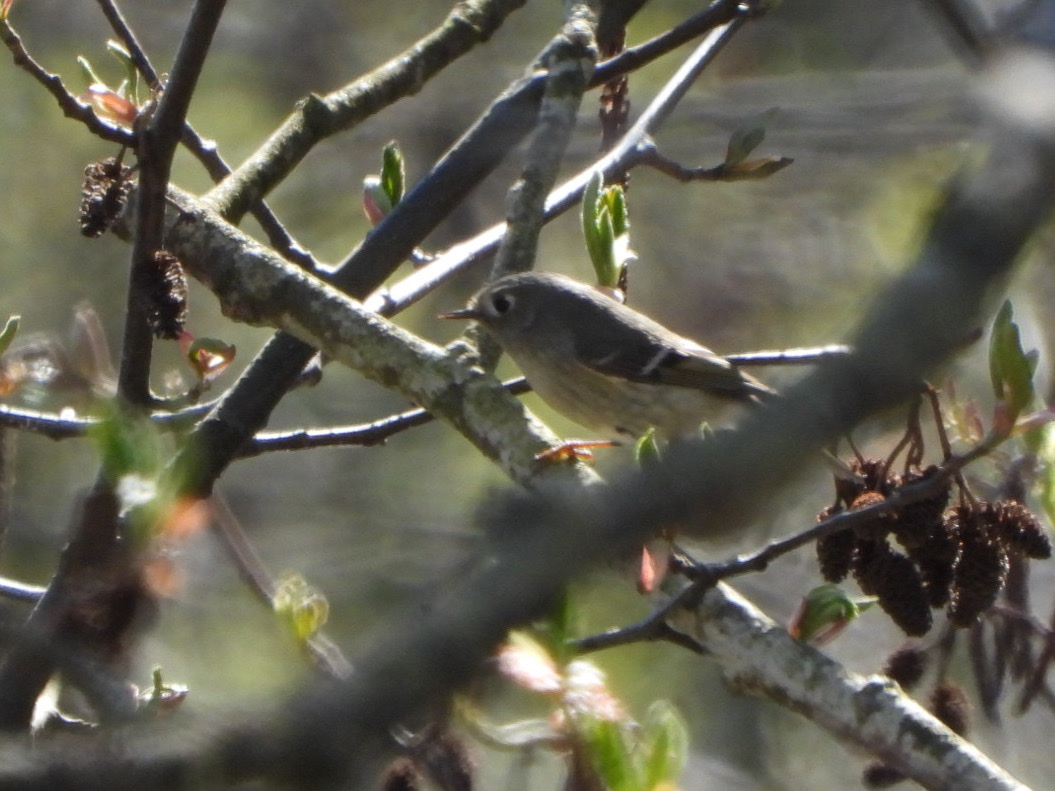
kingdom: Animalia
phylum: Chordata
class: Aves
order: Passeriformes
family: Regulidae
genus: Regulus
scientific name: Regulus calendula
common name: Ruby-crowned kinglet
